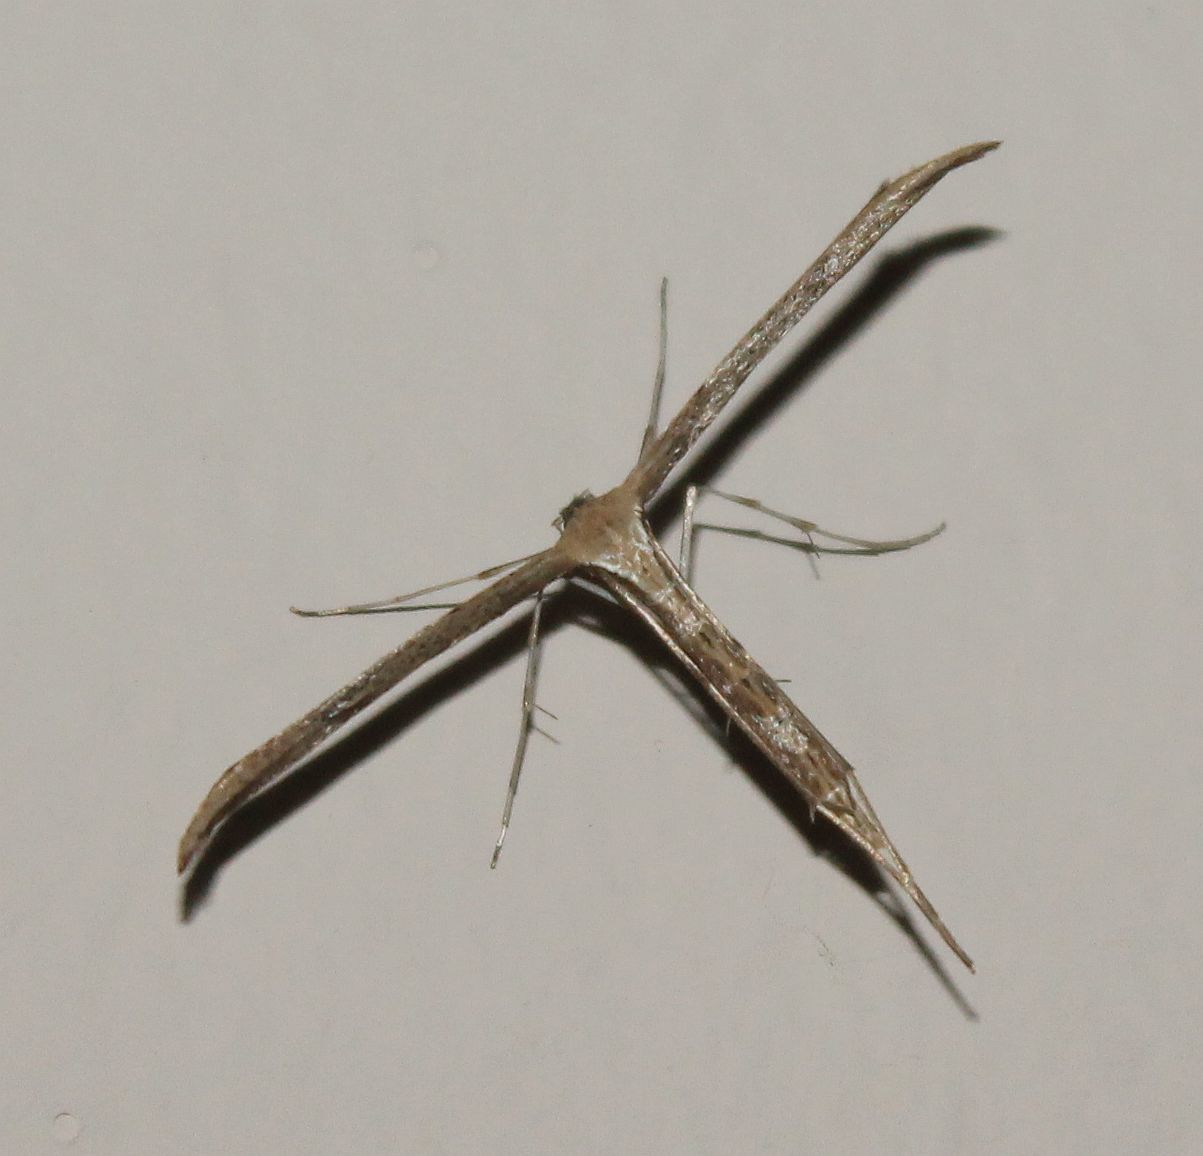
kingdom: Animalia
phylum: Arthropoda
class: Insecta
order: Lepidoptera
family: Pterophoridae
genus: Emmelina
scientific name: Emmelina monodactyla
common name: Common plume
